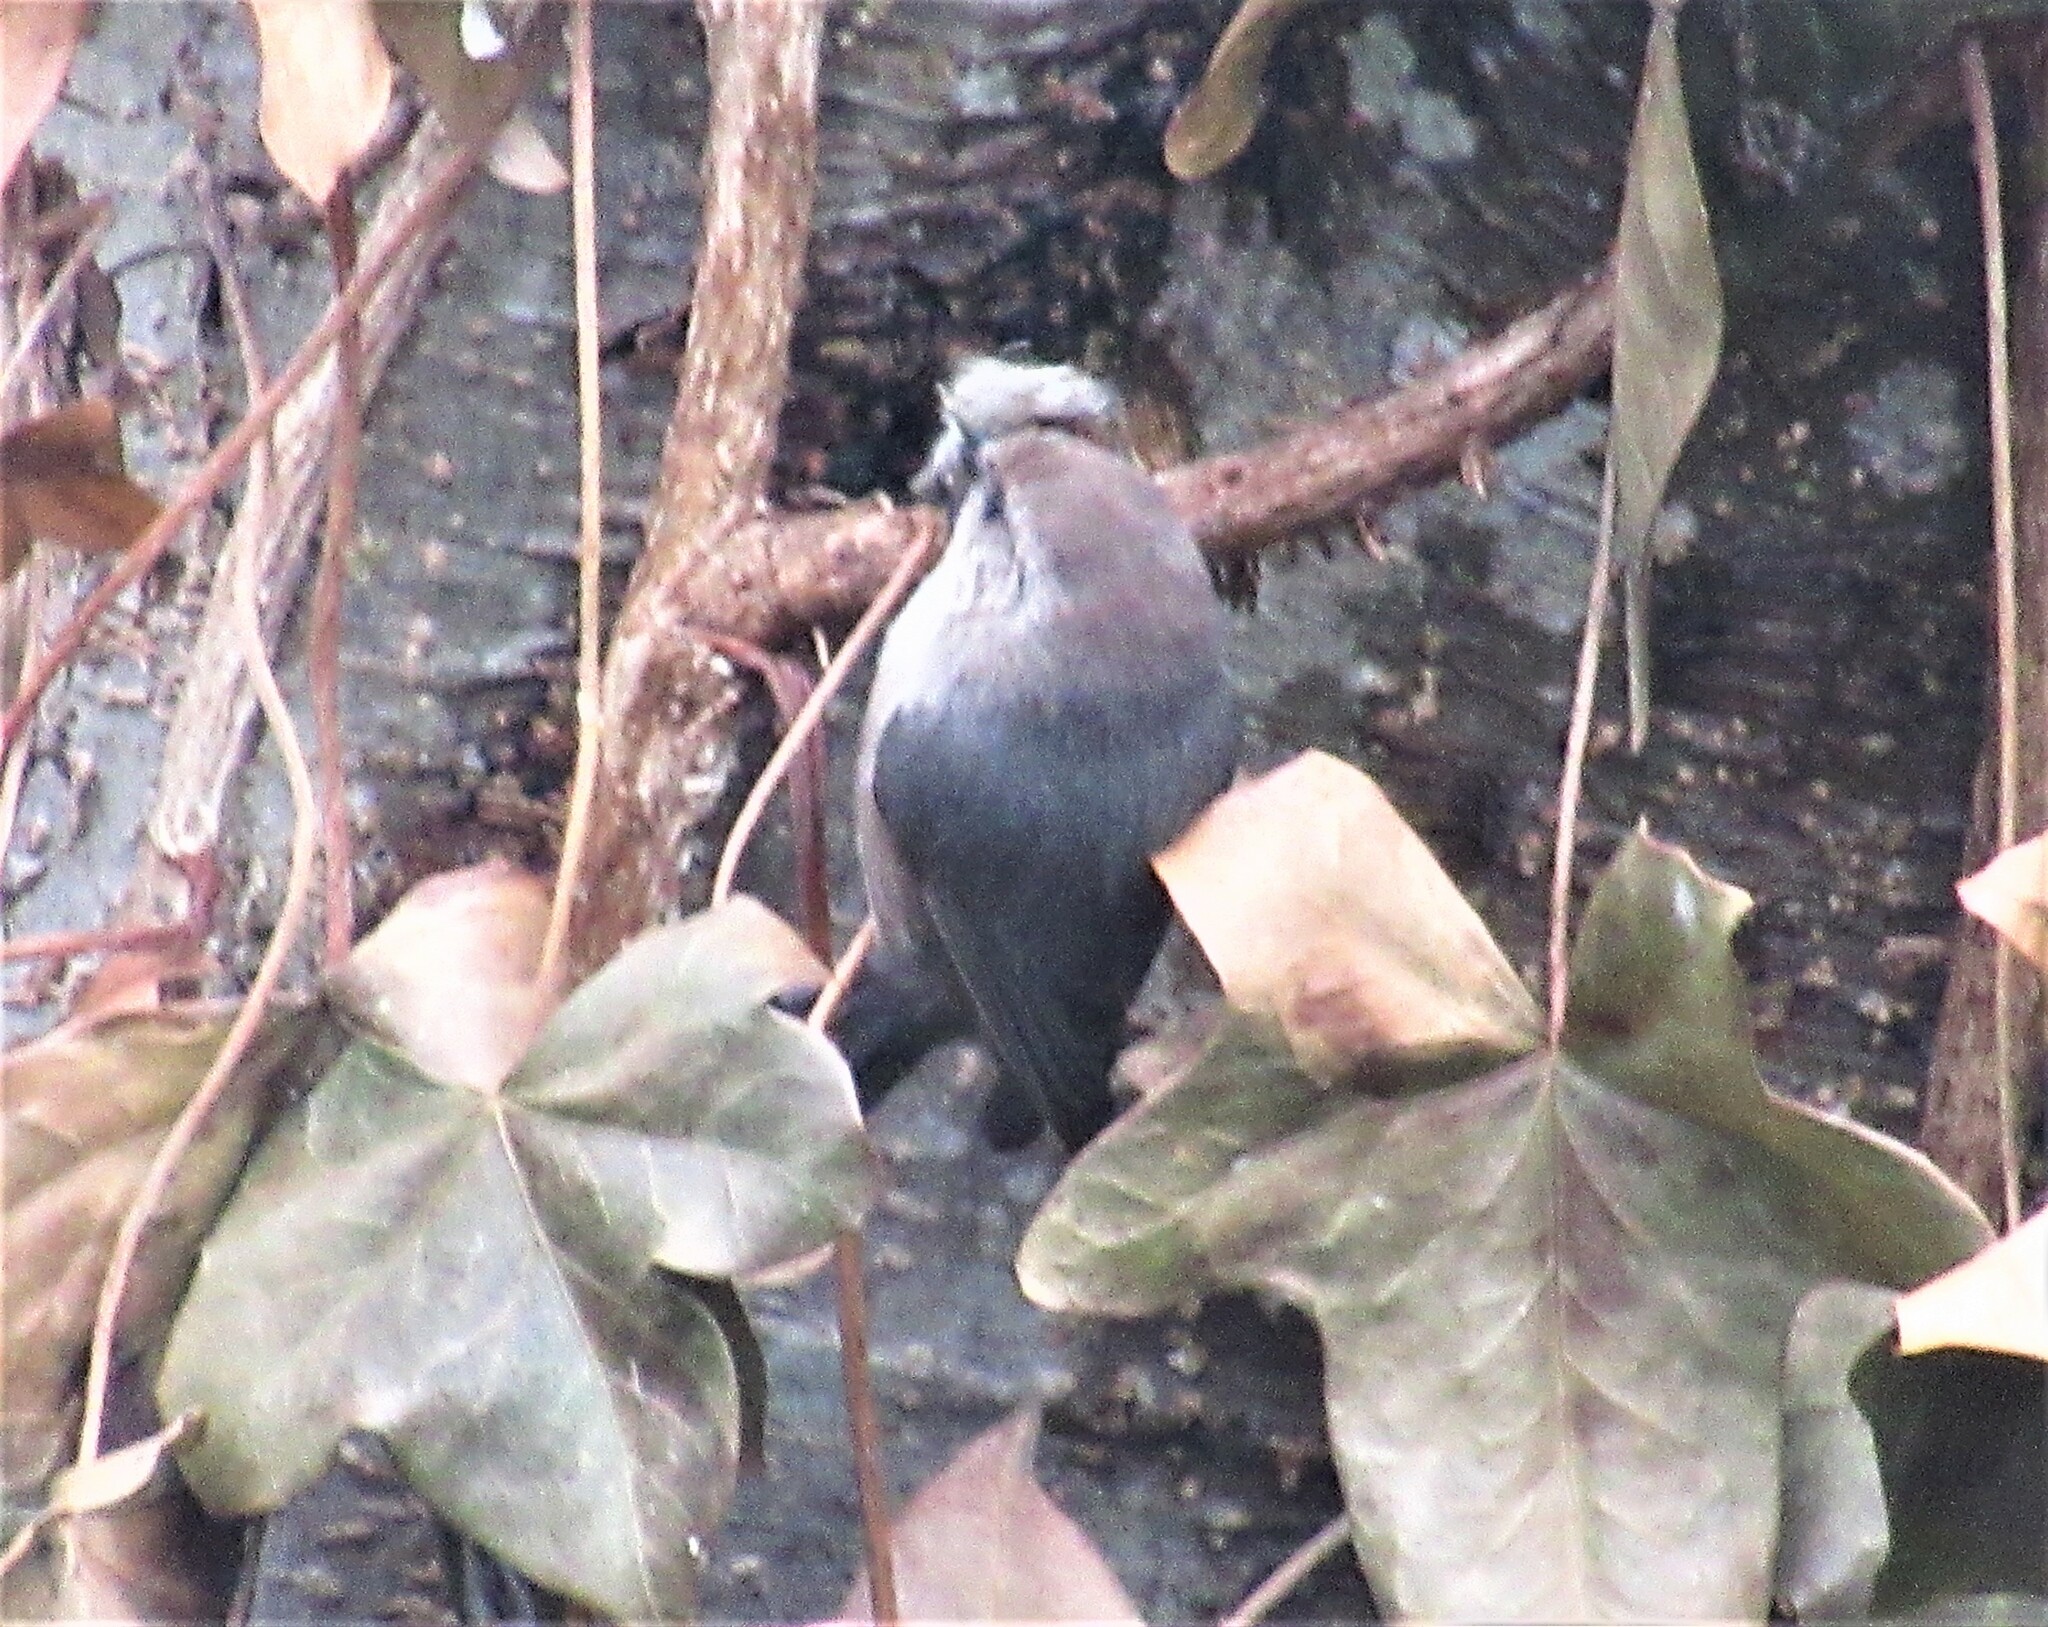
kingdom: Animalia
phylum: Chordata
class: Aves
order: Passeriformes
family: Aegithalidae
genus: Psaltriparus
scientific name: Psaltriparus minimus
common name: American bushtit
